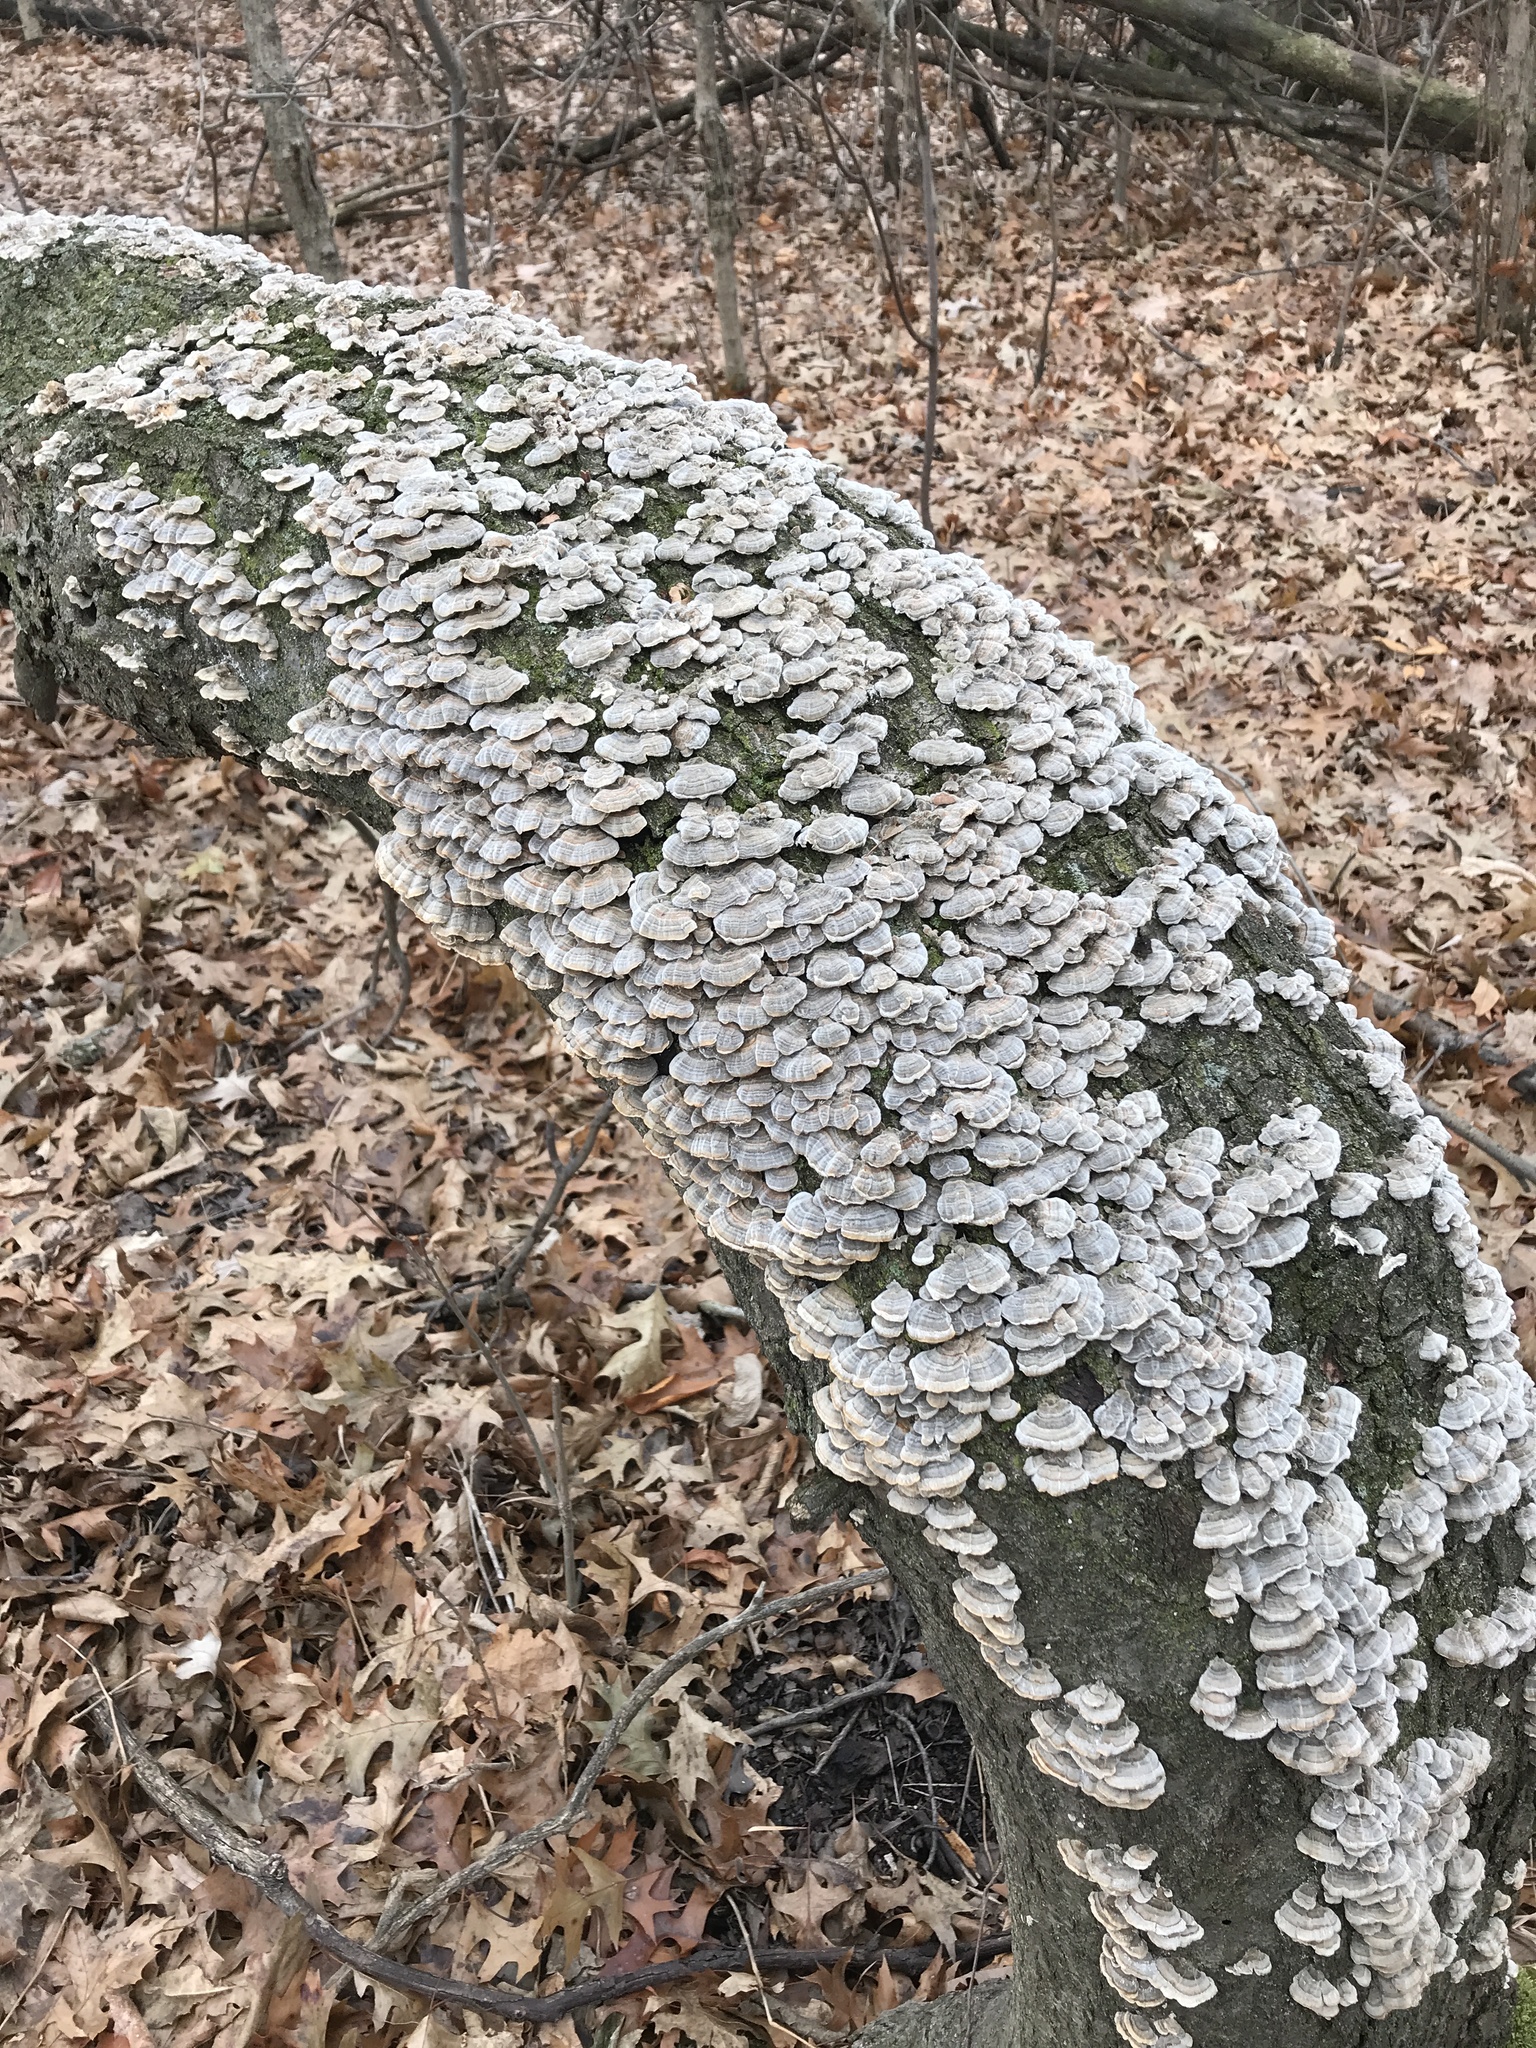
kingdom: Fungi
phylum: Basidiomycota
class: Agaricomycetes
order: Polyporales
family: Polyporaceae
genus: Trametes
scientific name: Trametes versicolor
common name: Turkeytail
